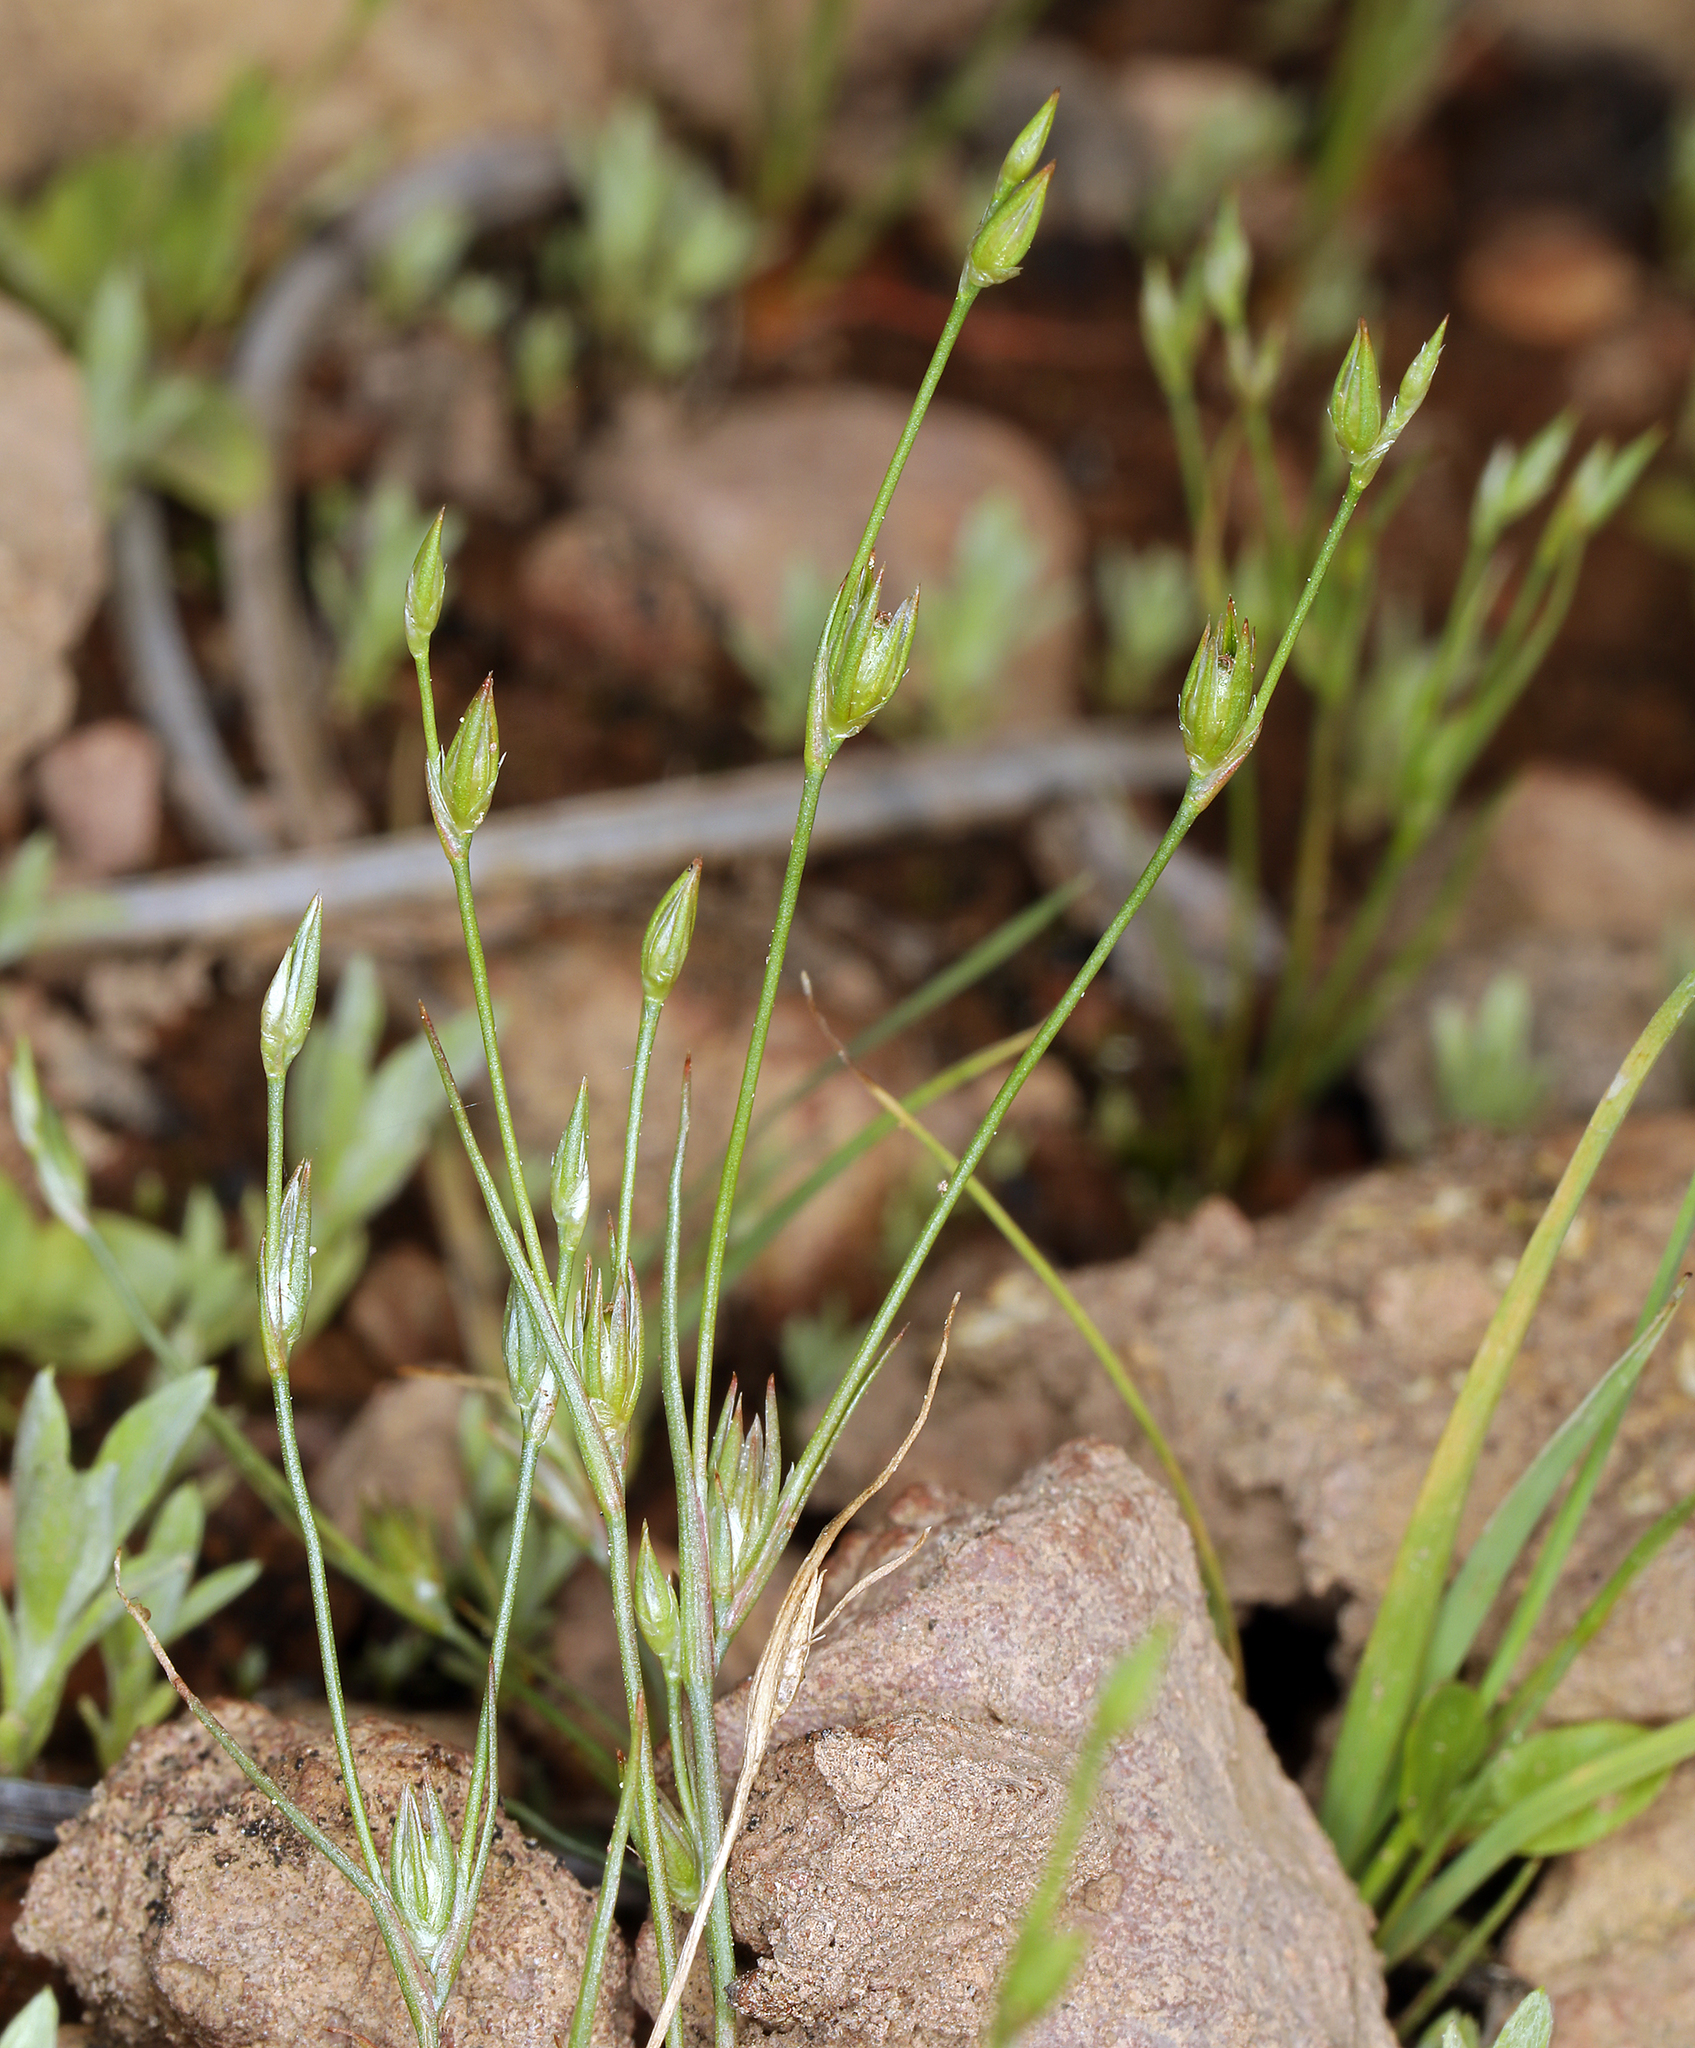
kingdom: Plantae
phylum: Tracheophyta
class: Liliopsida
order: Poales
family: Juncaceae
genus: Juncus
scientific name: Juncus bufonius
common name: Toad rush
